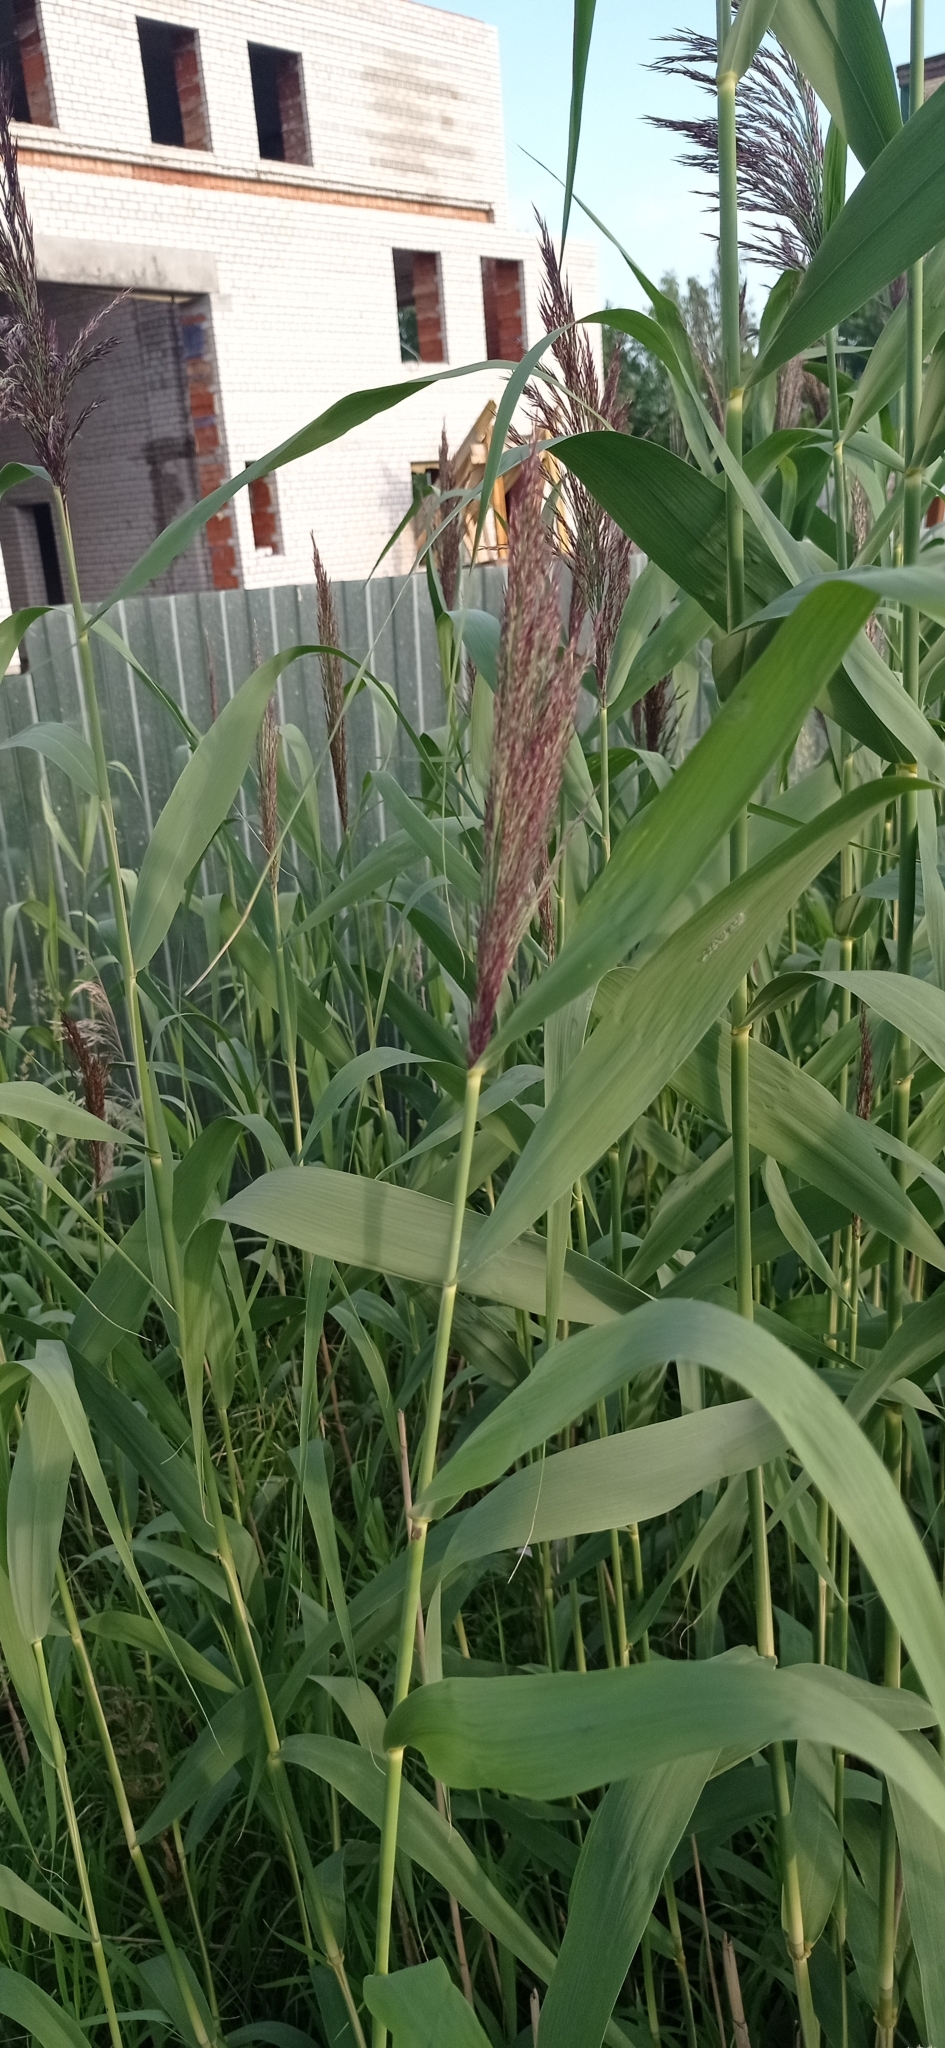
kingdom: Plantae
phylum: Tracheophyta
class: Liliopsida
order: Poales
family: Poaceae
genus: Phragmites
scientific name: Phragmites australis
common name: Common reed
